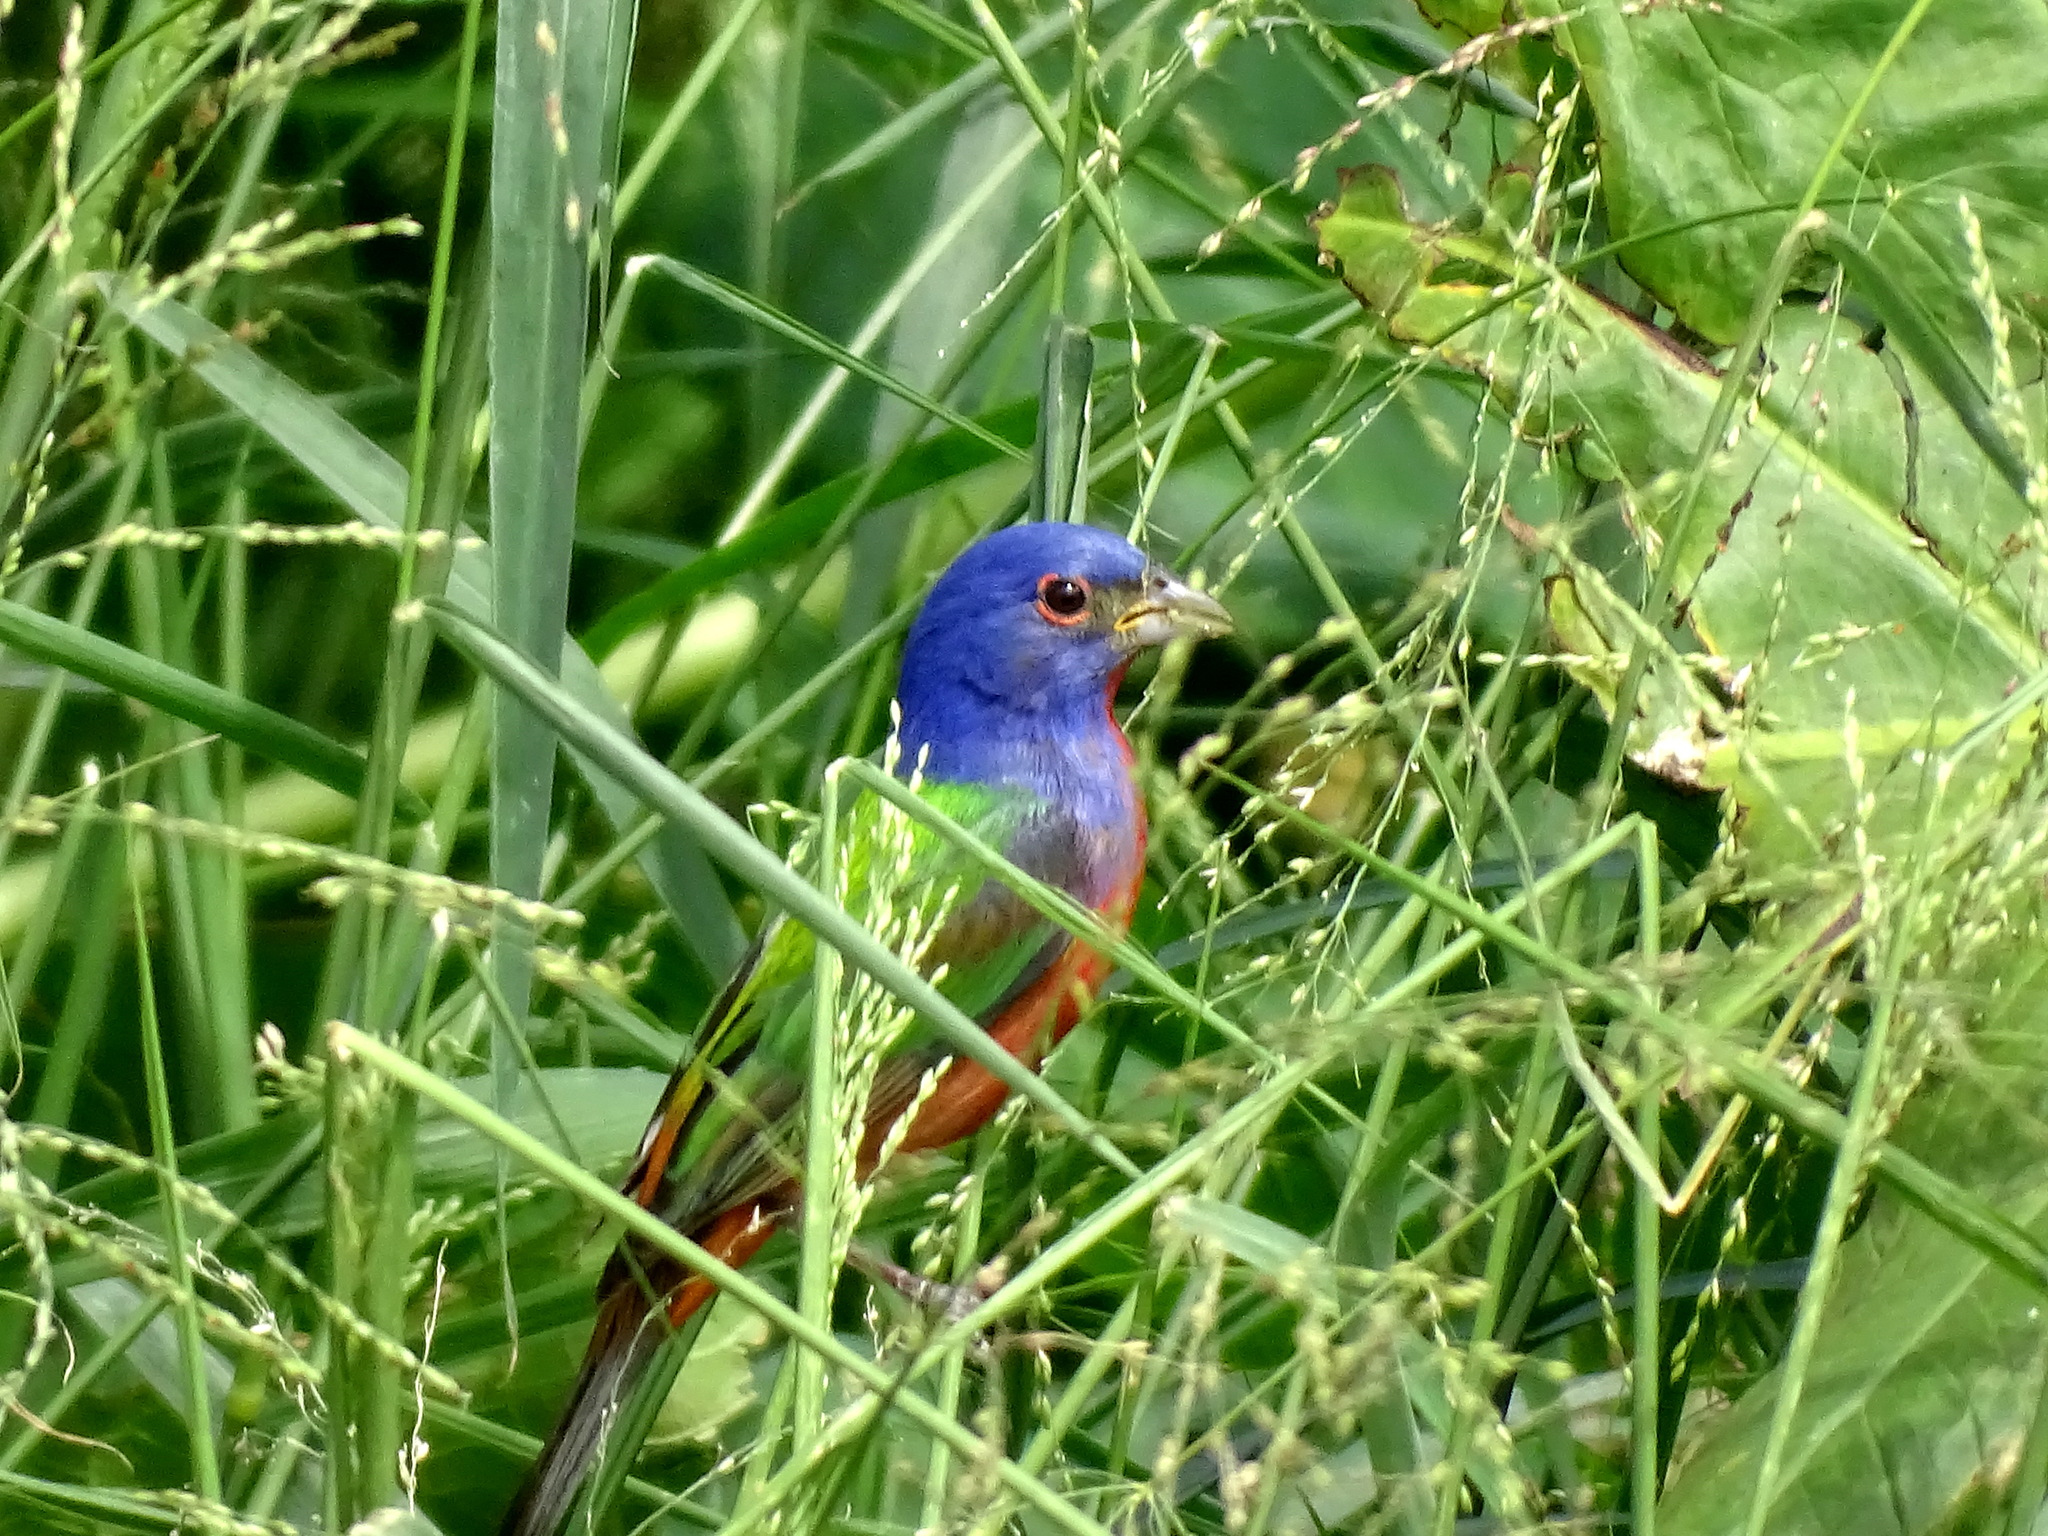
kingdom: Animalia
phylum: Chordata
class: Aves
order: Passeriformes
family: Cardinalidae
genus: Passerina
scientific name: Passerina ciris
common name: Painted bunting
